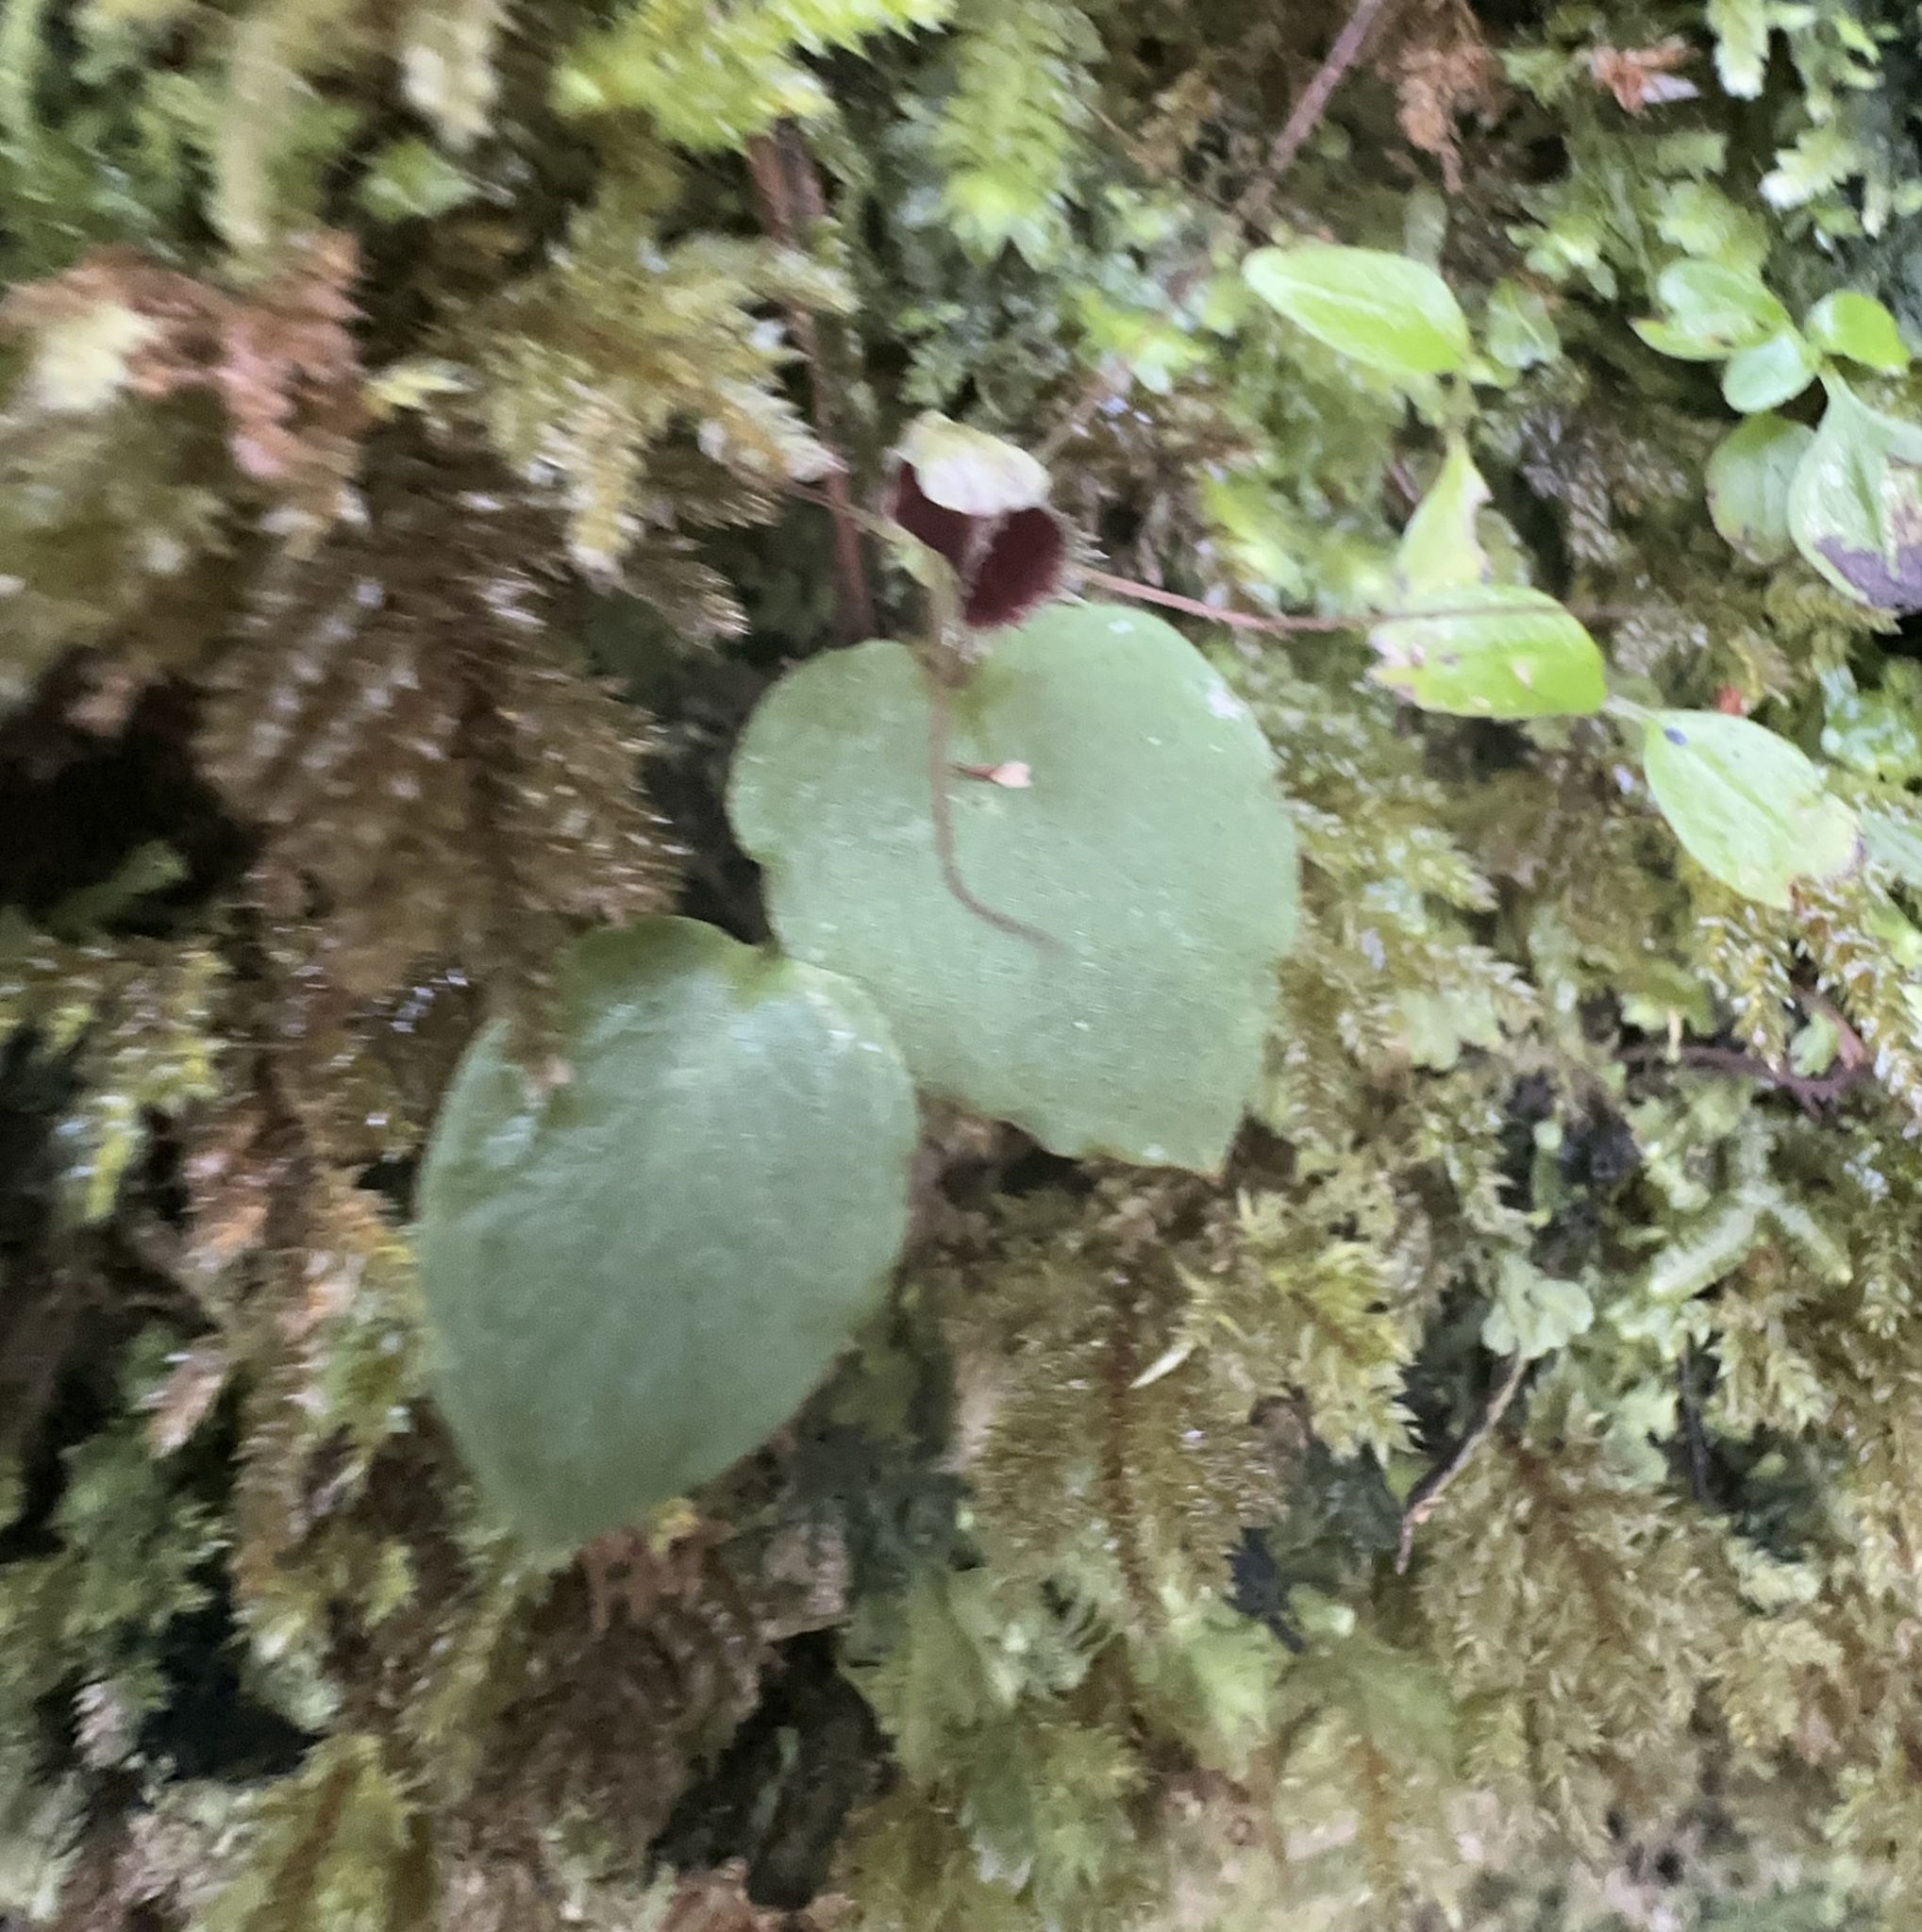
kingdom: Plantae
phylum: Tracheophyta
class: Liliopsida
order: Asparagales
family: Orchidaceae
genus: Corybas
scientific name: Corybas oblongus
